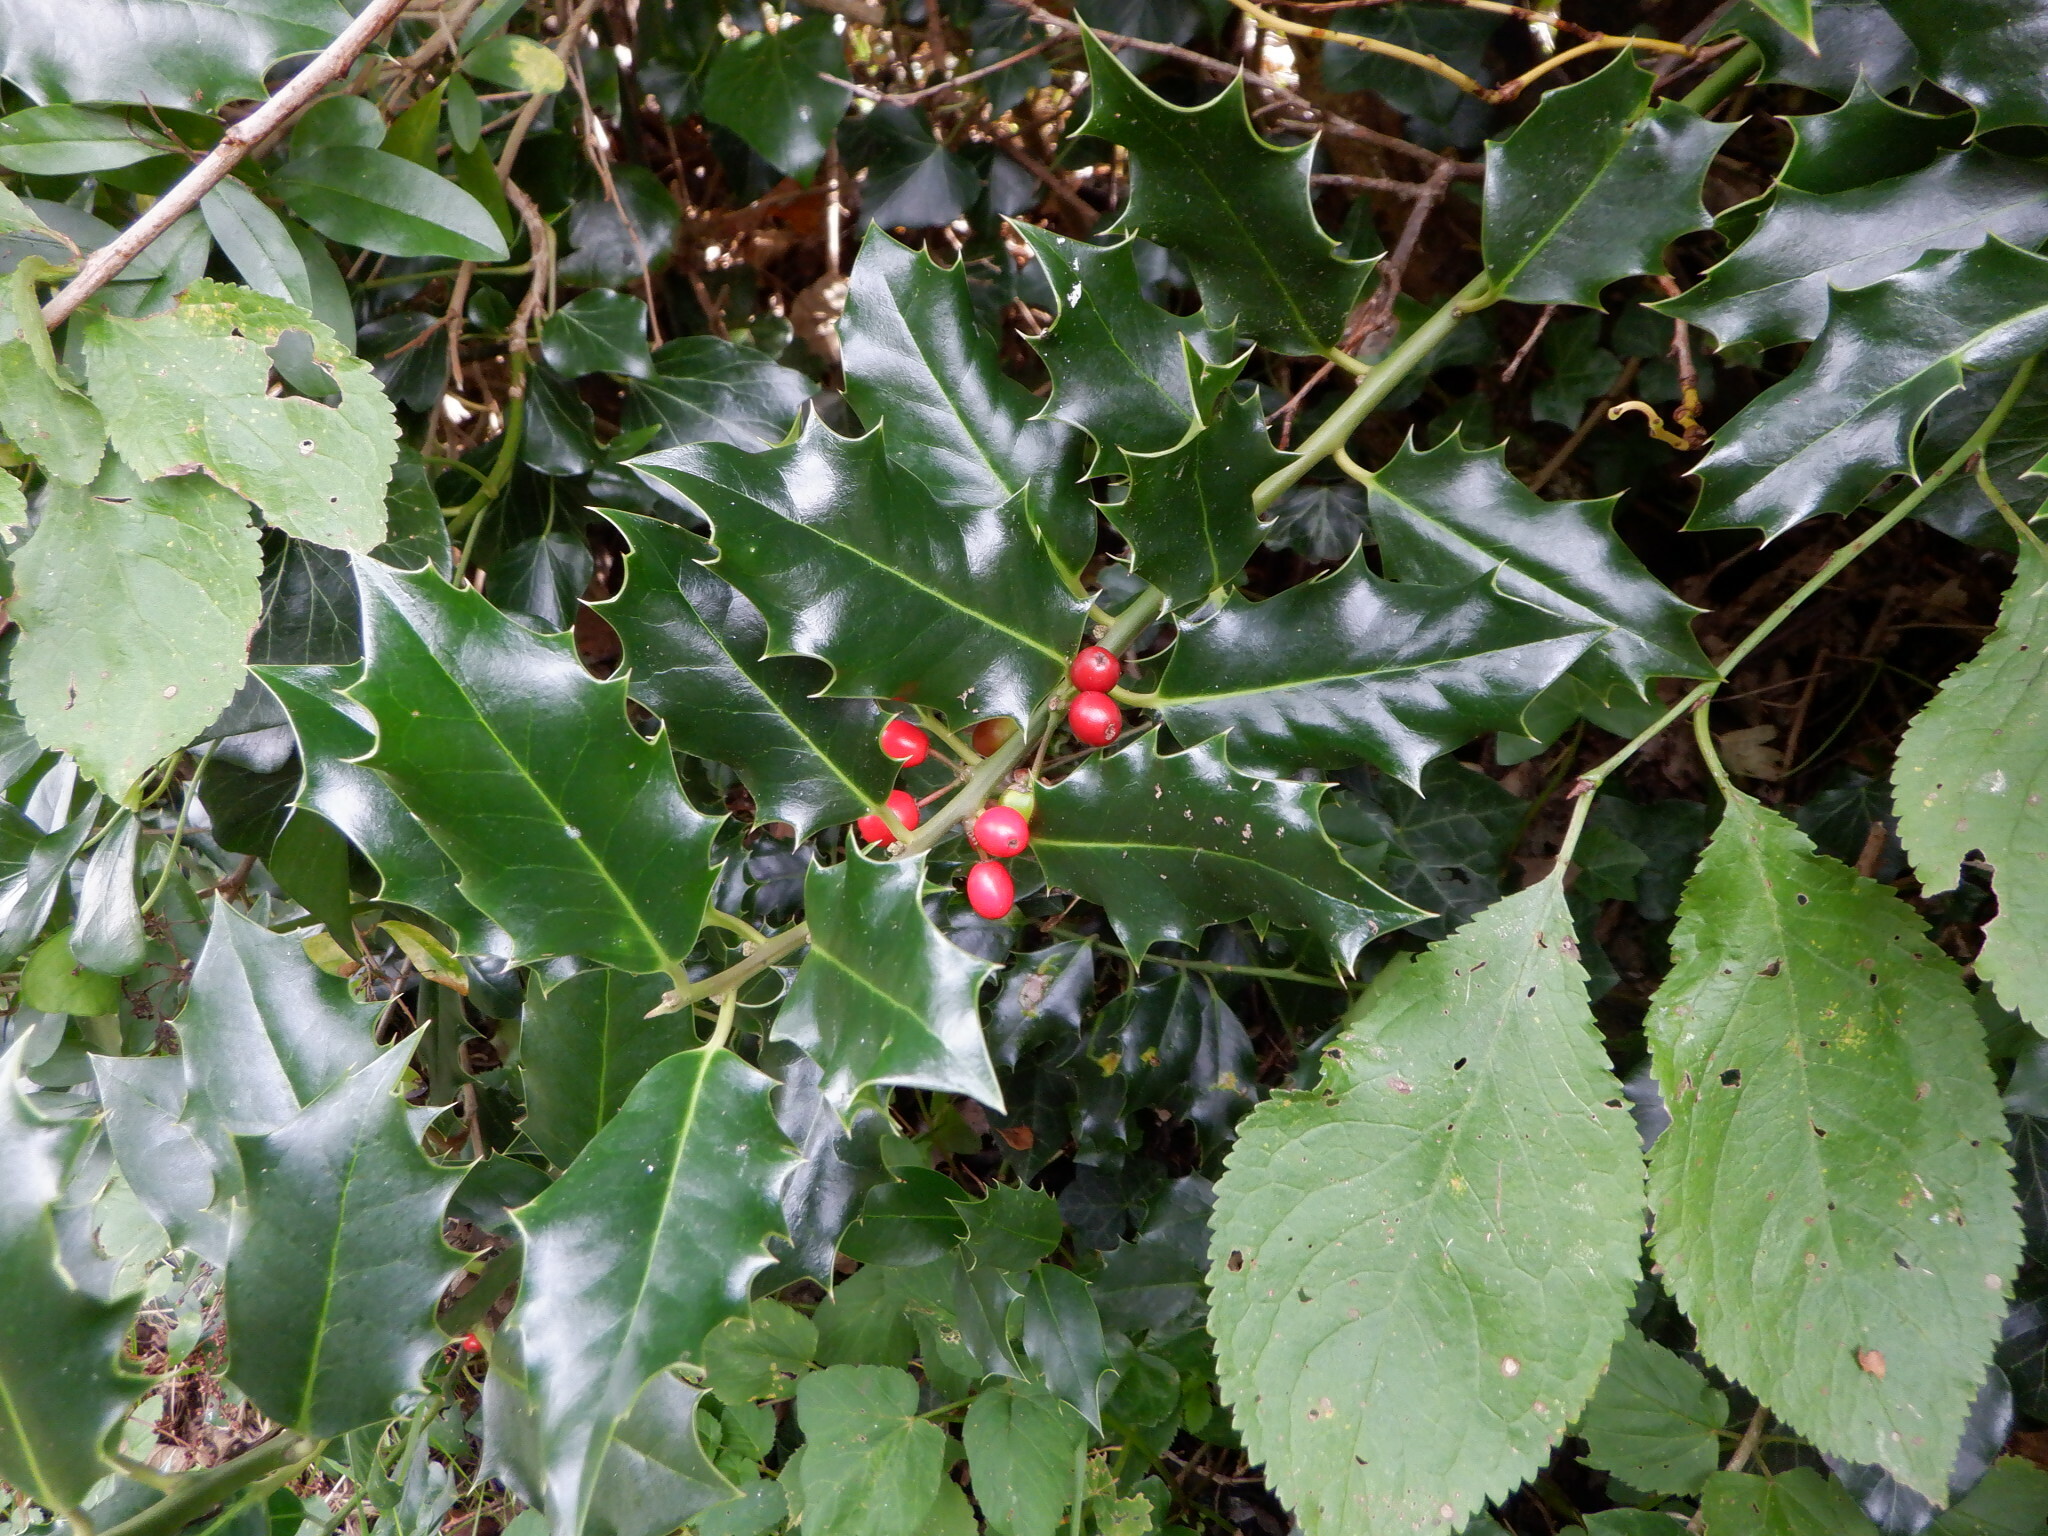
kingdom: Plantae
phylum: Tracheophyta
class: Magnoliopsida
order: Aquifoliales
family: Aquifoliaceae
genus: Ilex
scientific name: Ilex aquifolium
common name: English holly
